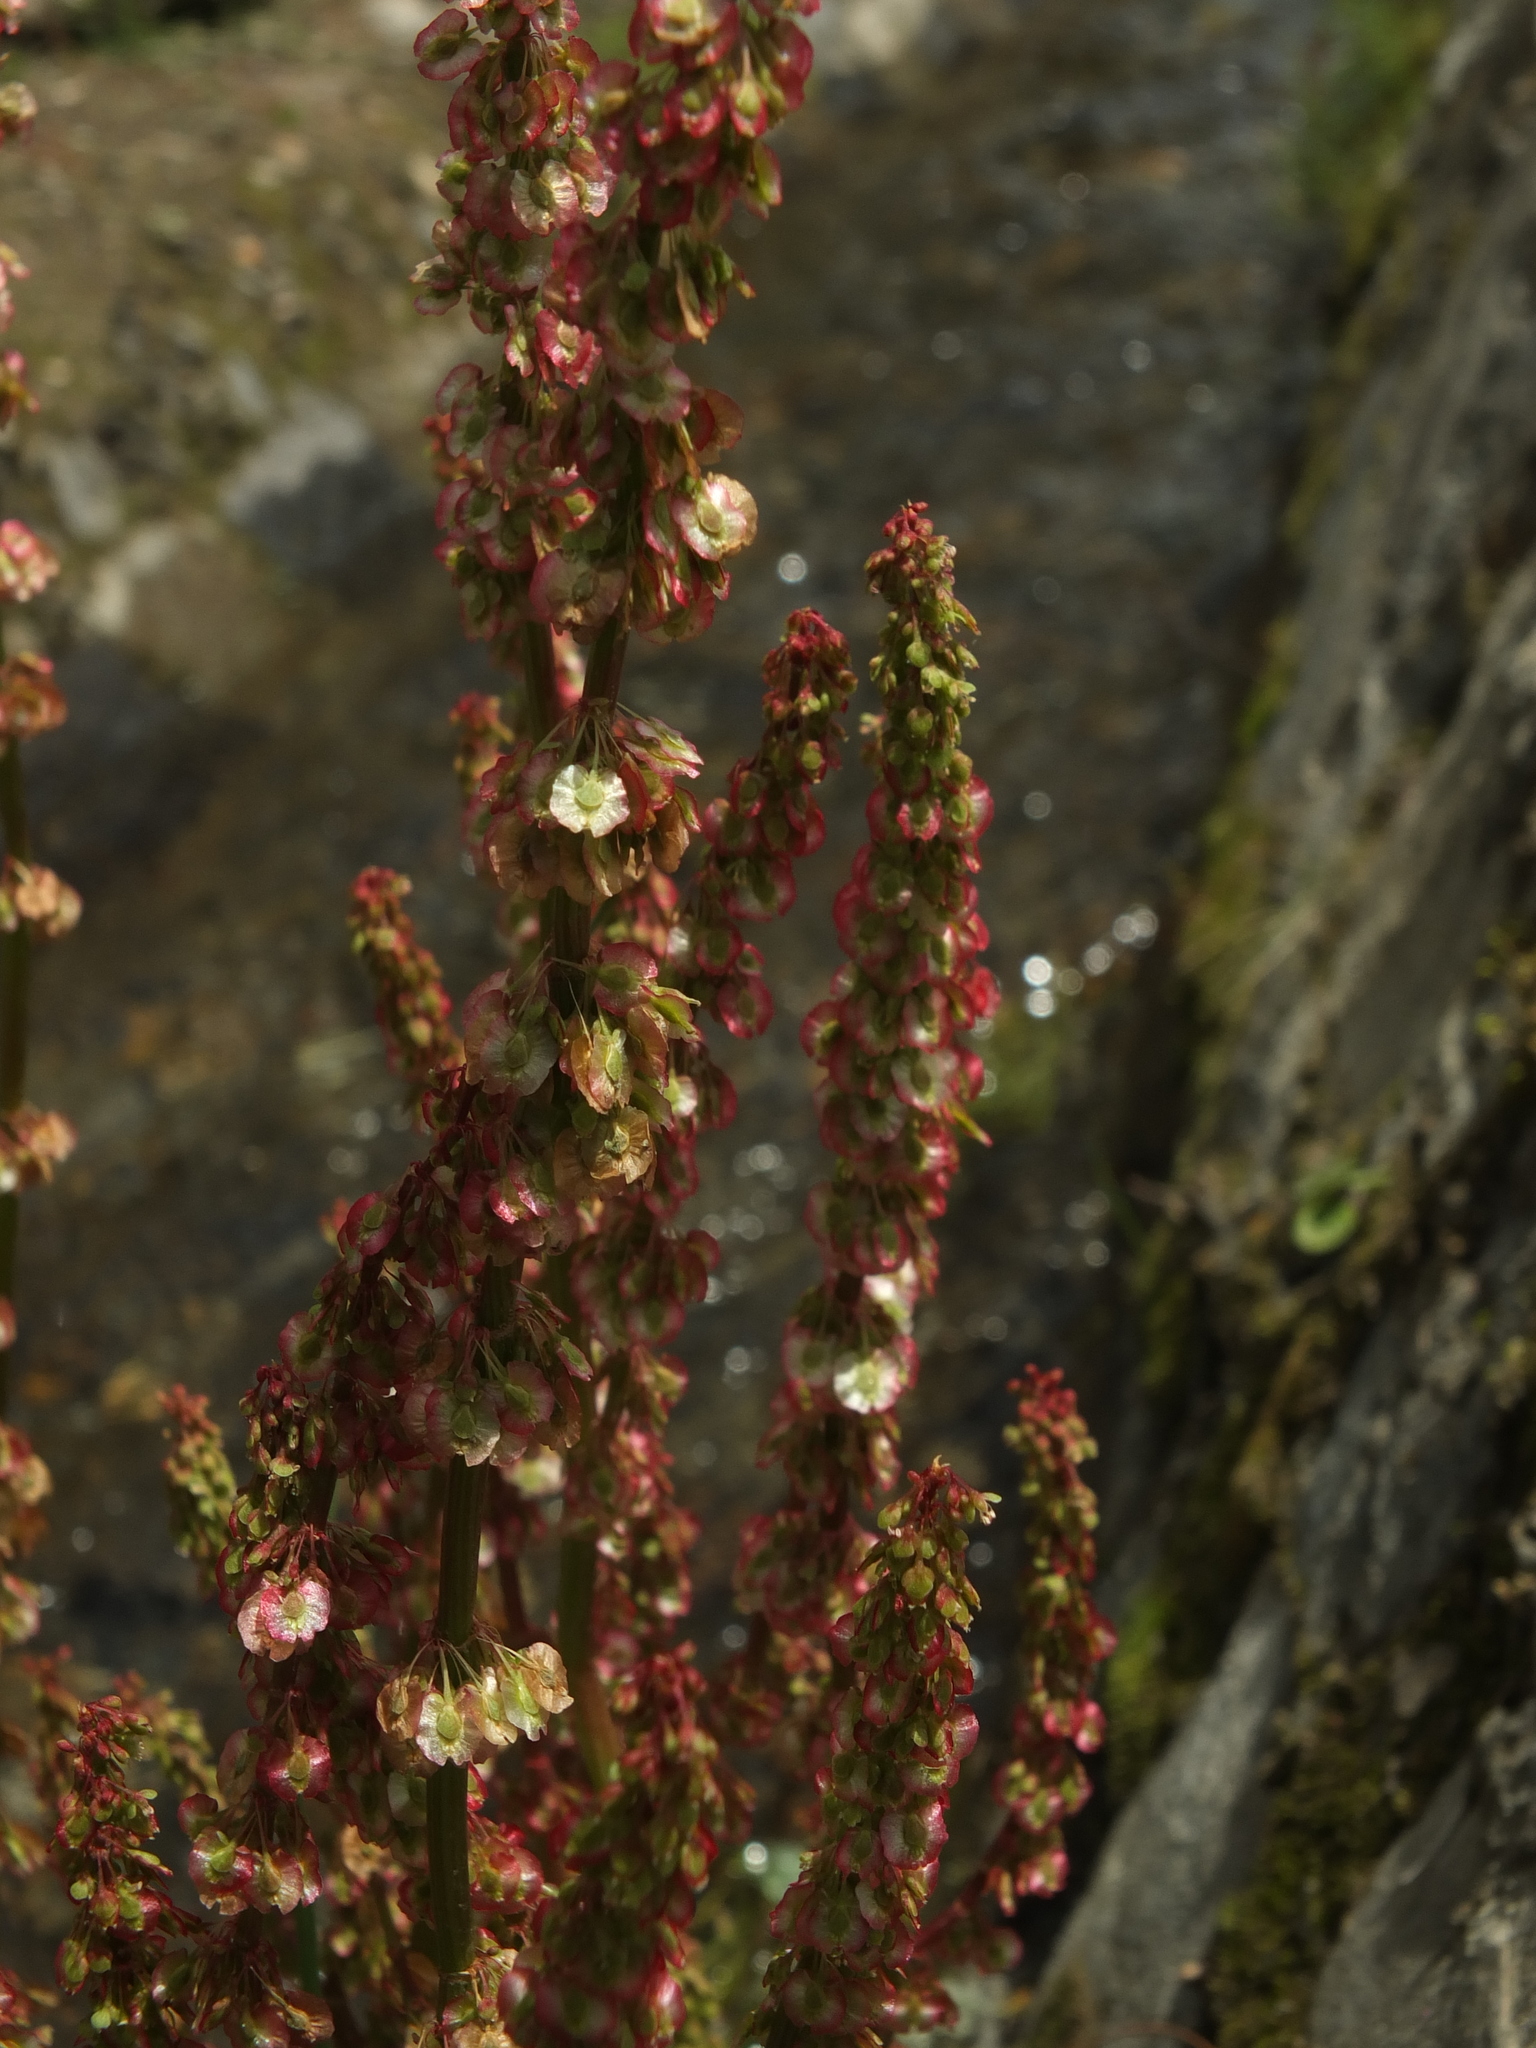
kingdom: Plantae
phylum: Tracheophyta
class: Magnoliopsida
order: Caryophyllales
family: Polygonaceae
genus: Oxyria
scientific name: Oxyria digyna
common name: Alpine mountain-sorrel
